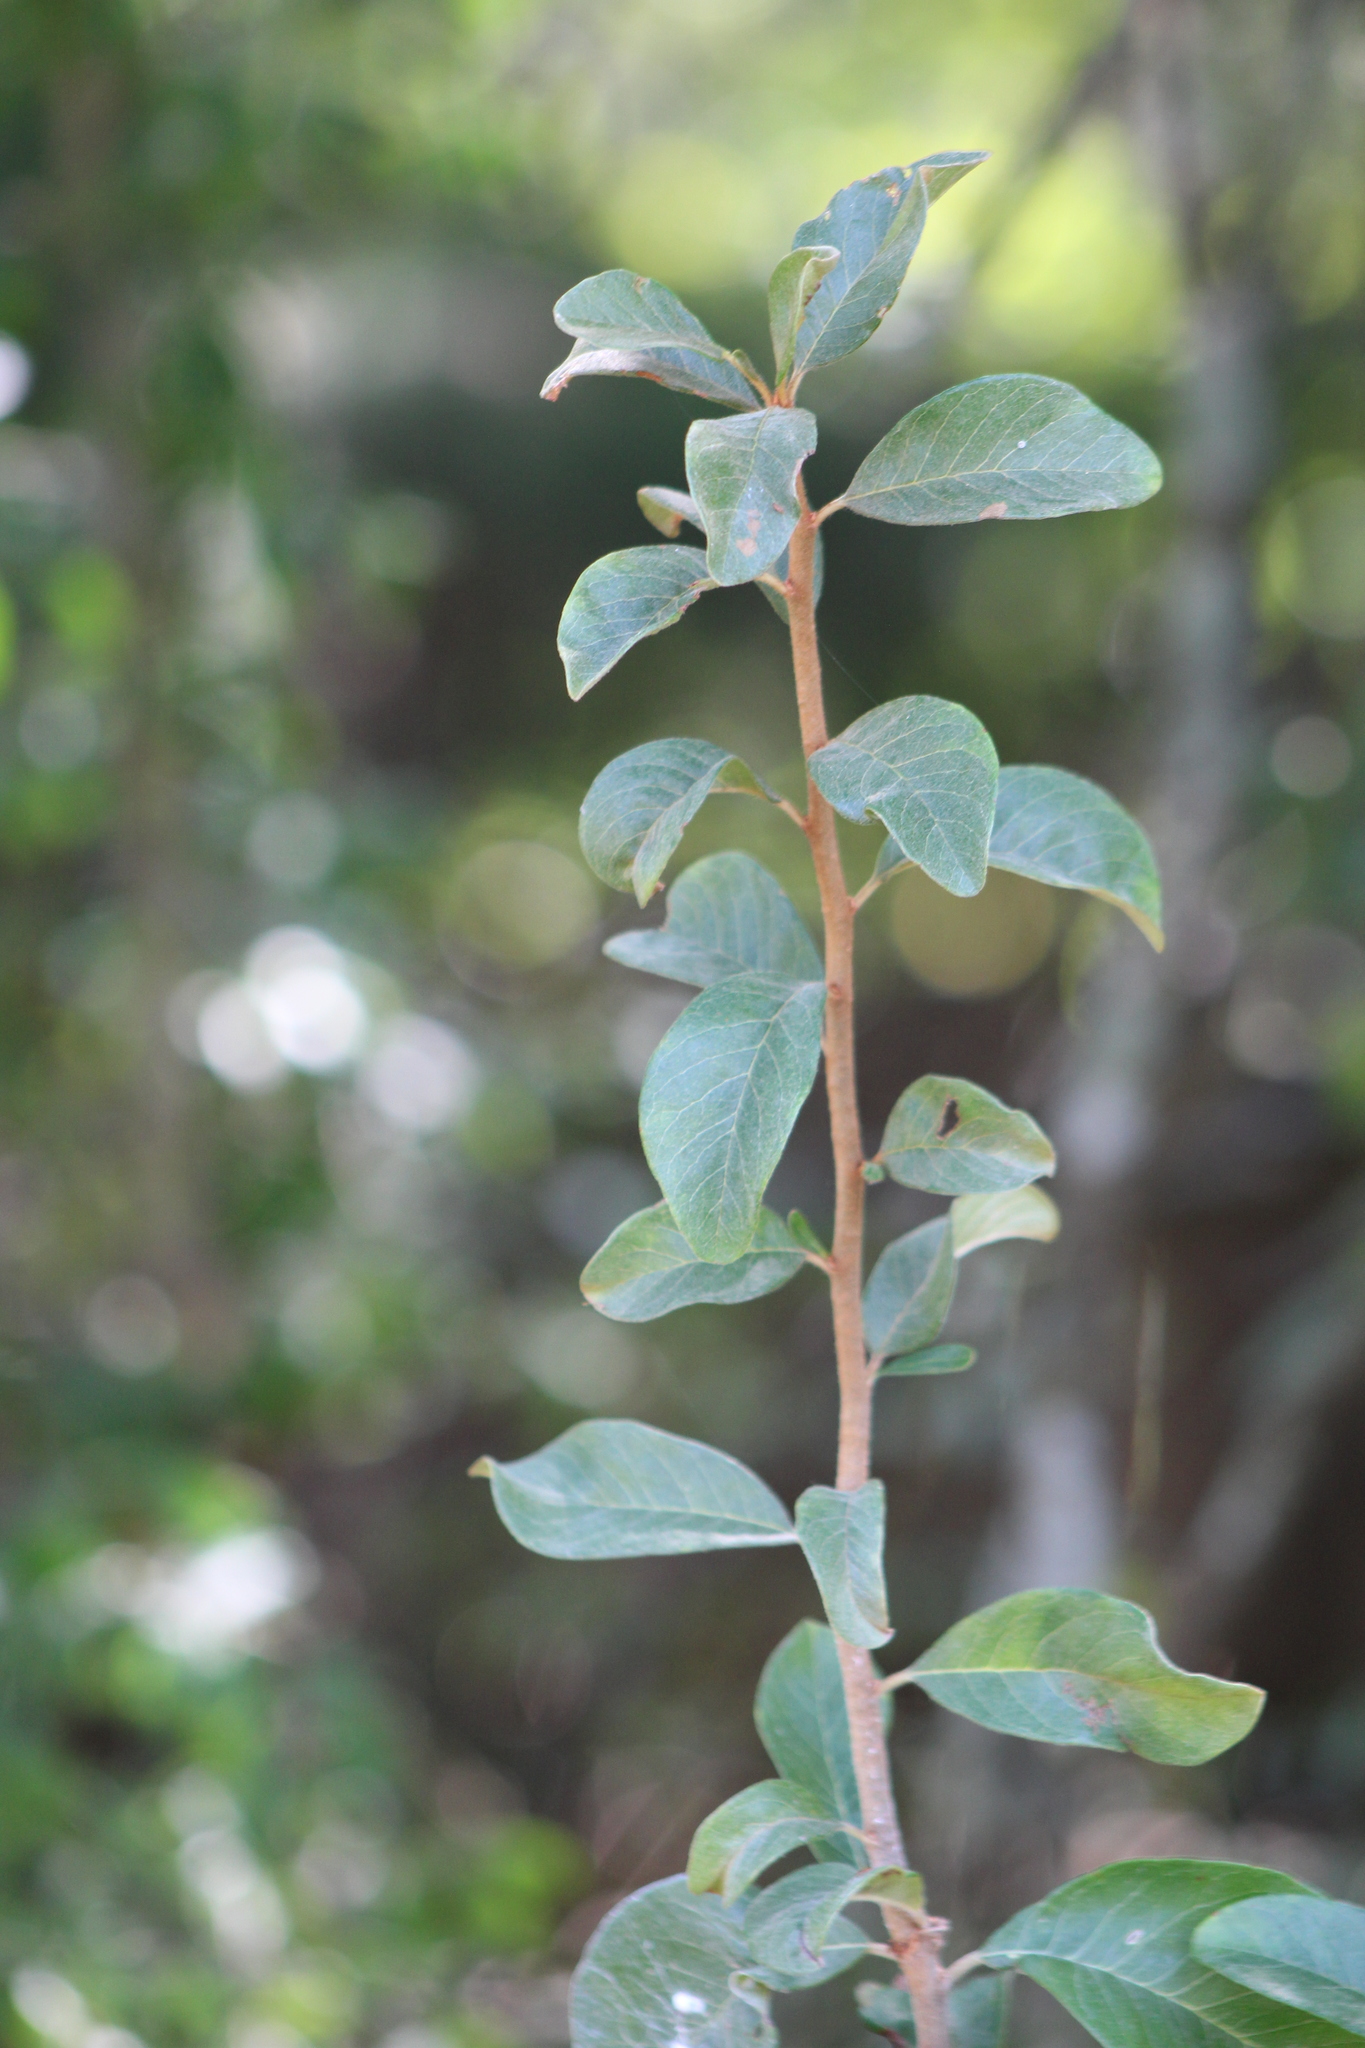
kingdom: Plantae
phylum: Tracheophyta
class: Magnoliopsida
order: Ericales
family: Sapotaceae
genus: Sideroxylon
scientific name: Sideroxylon lanuginosum
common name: Chittamwood
